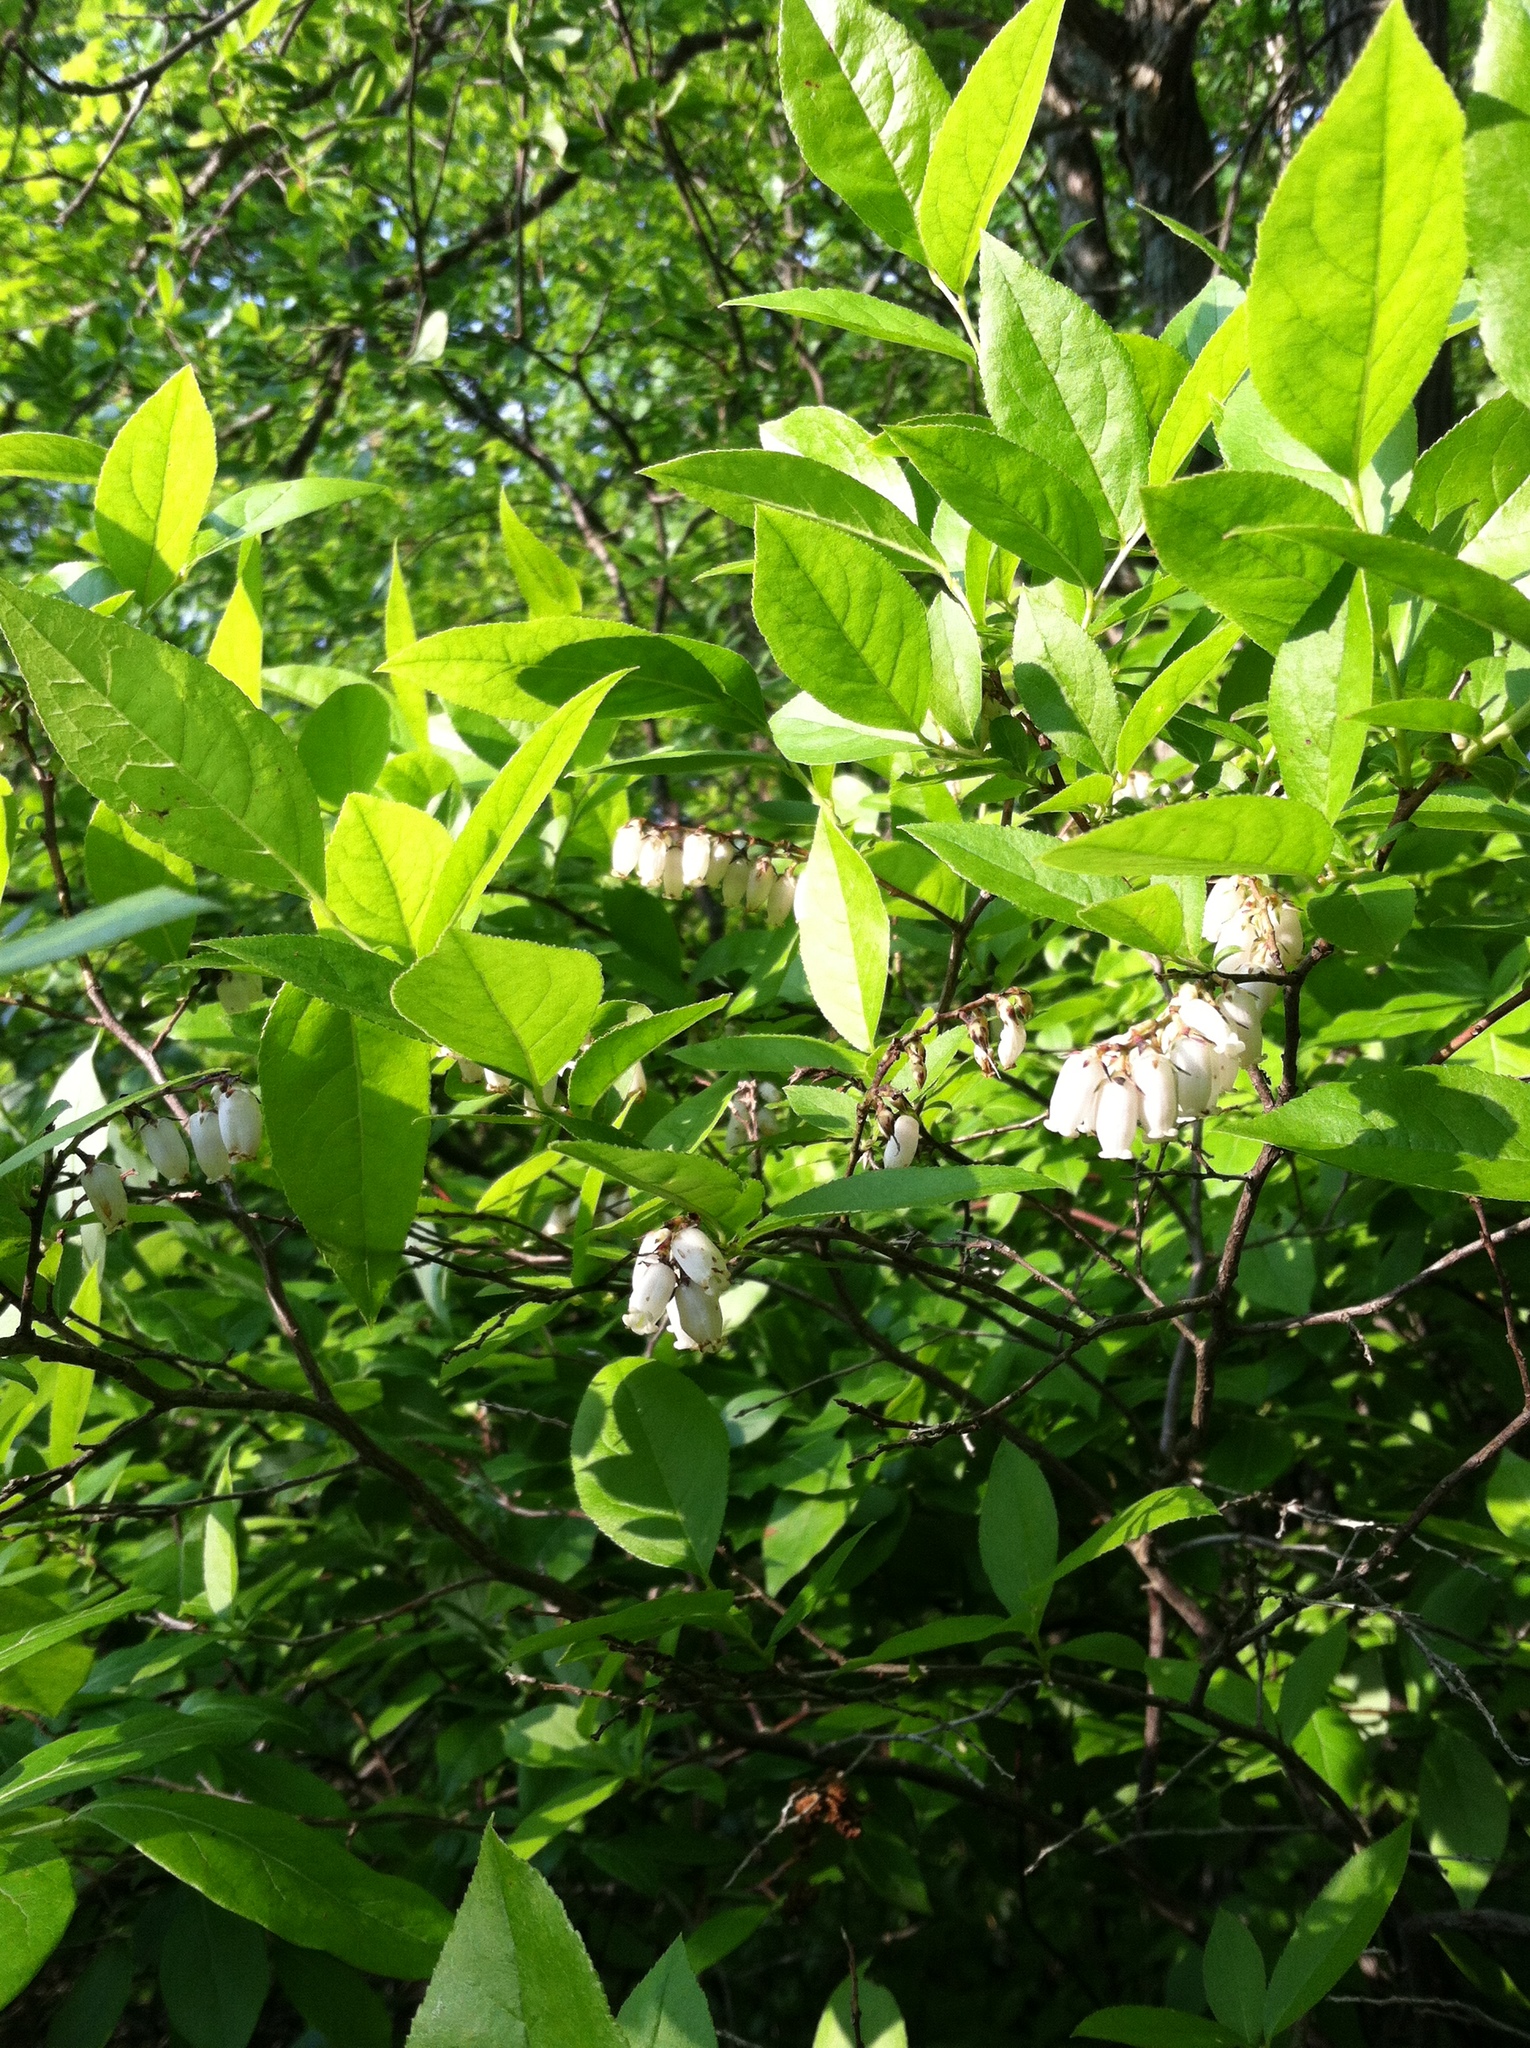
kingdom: Plantae
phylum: Tracheophyta
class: Magnoliopsida
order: Ericales
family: Ericaceae
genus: Eubotrys
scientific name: Eubotrys racemosa
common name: Fetterbush
